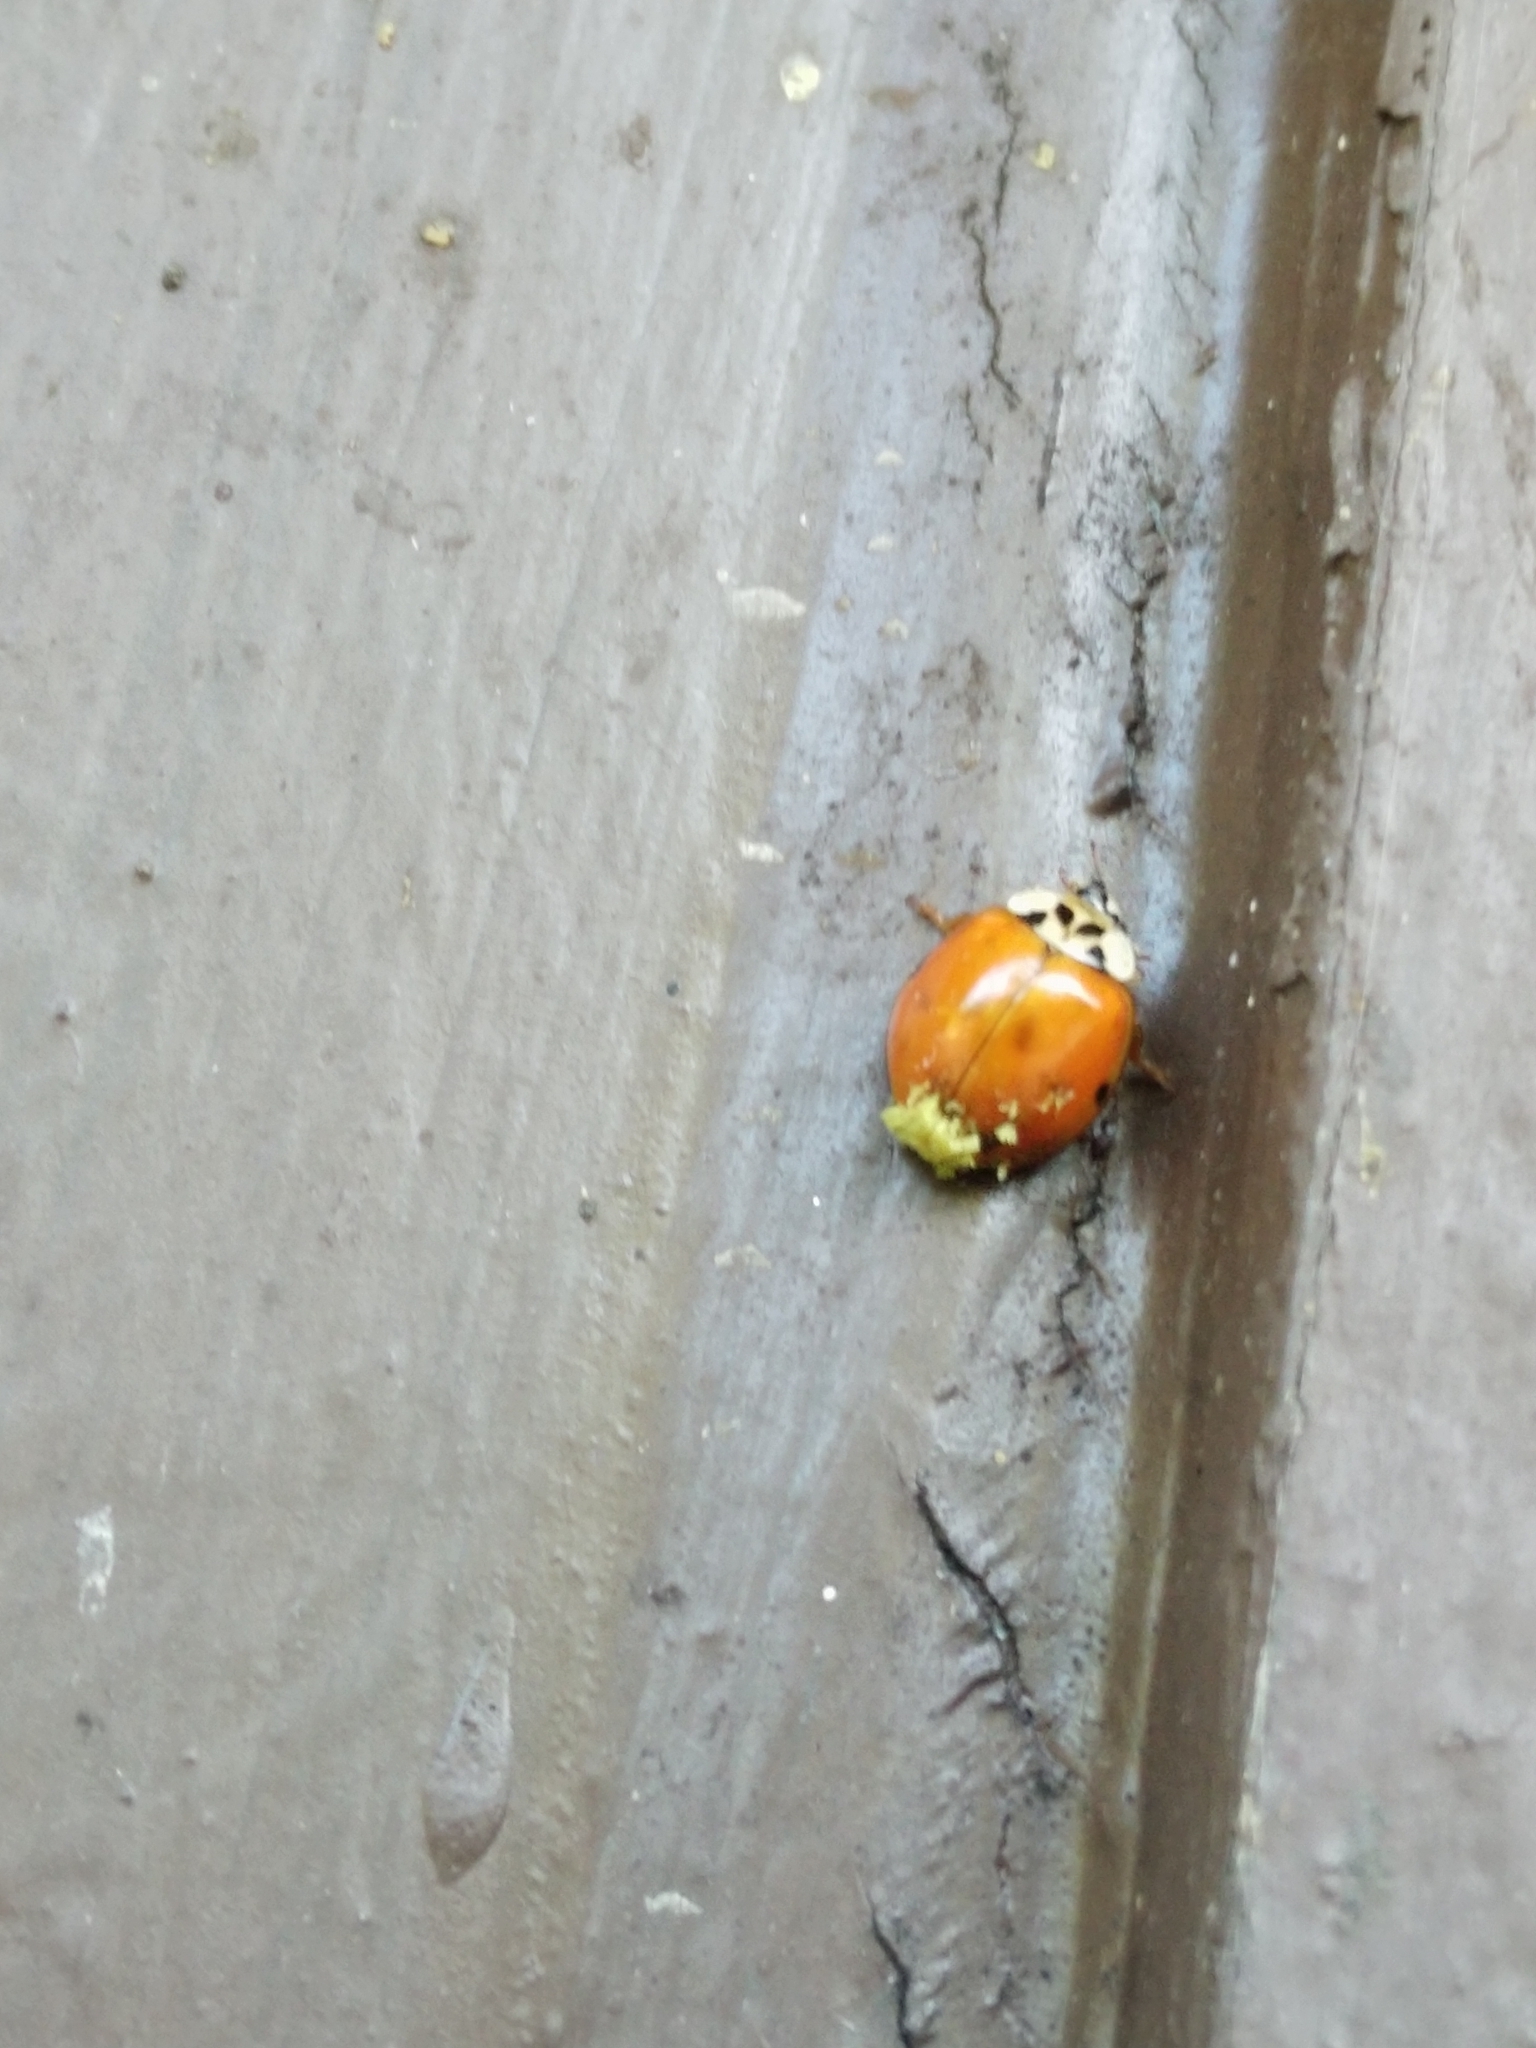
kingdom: Animalia
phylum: Arthropoda
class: Insecta
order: Coleoptera
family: Coccinellidae
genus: Harmonia
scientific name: Harmonia axyridis
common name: Harlequin ladybird
